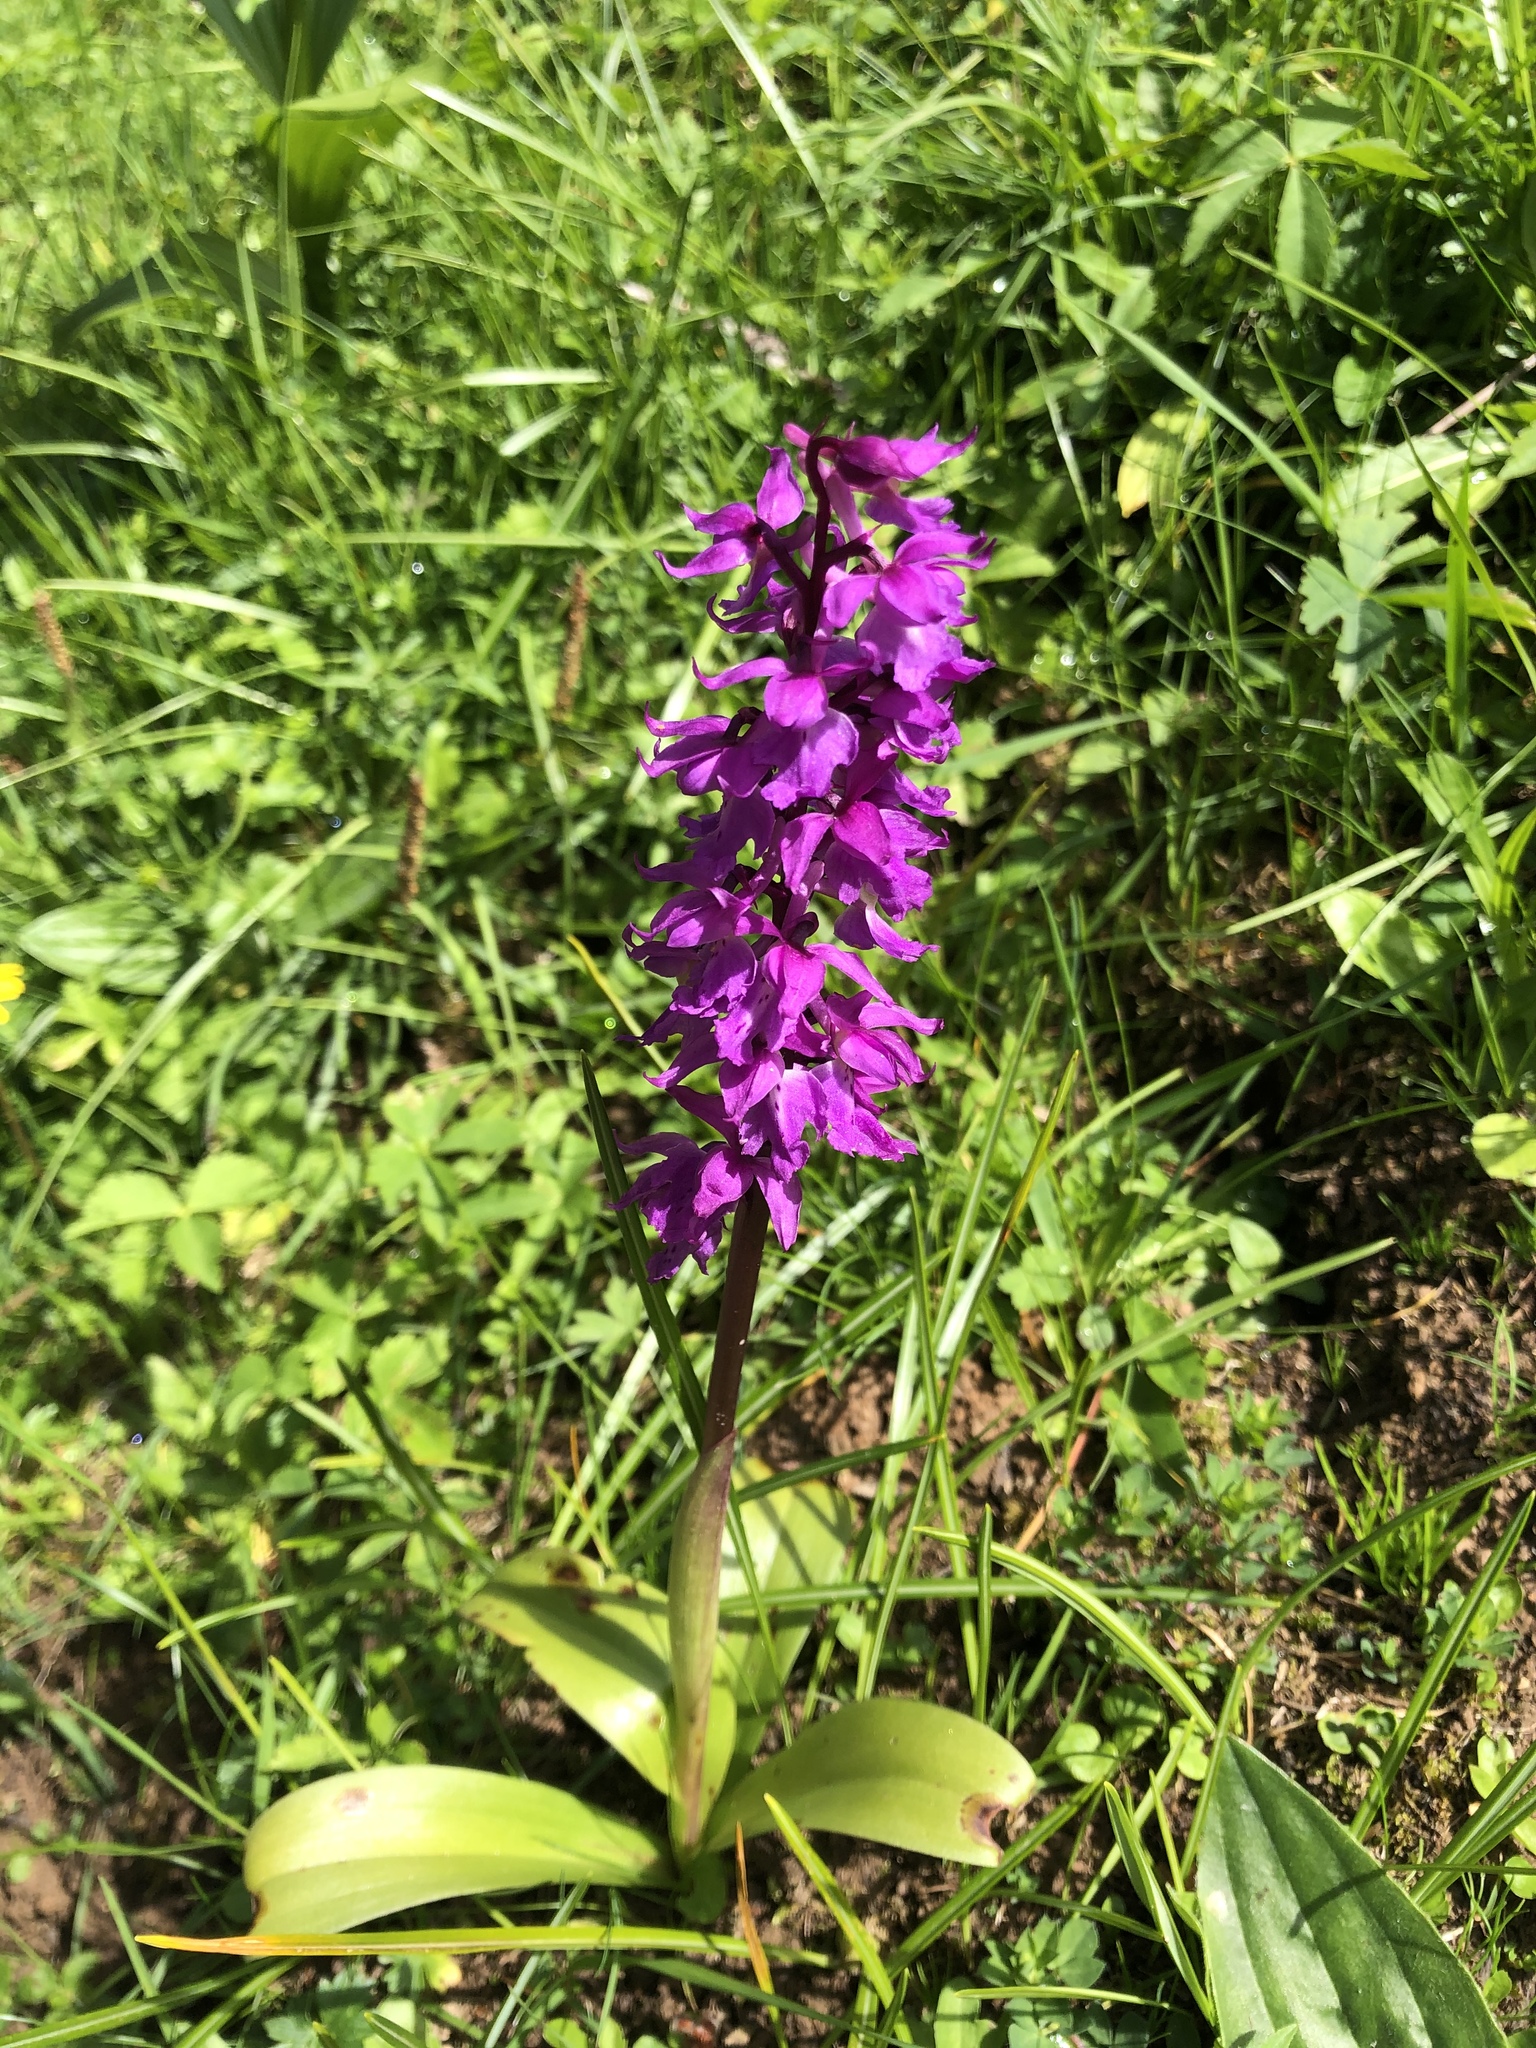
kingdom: Plantae
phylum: Tracheophyta
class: Liliopsida
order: Asparagales
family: Orchidaceae
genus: Orchis
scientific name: Orchis mascula
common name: Early-purple orchid
